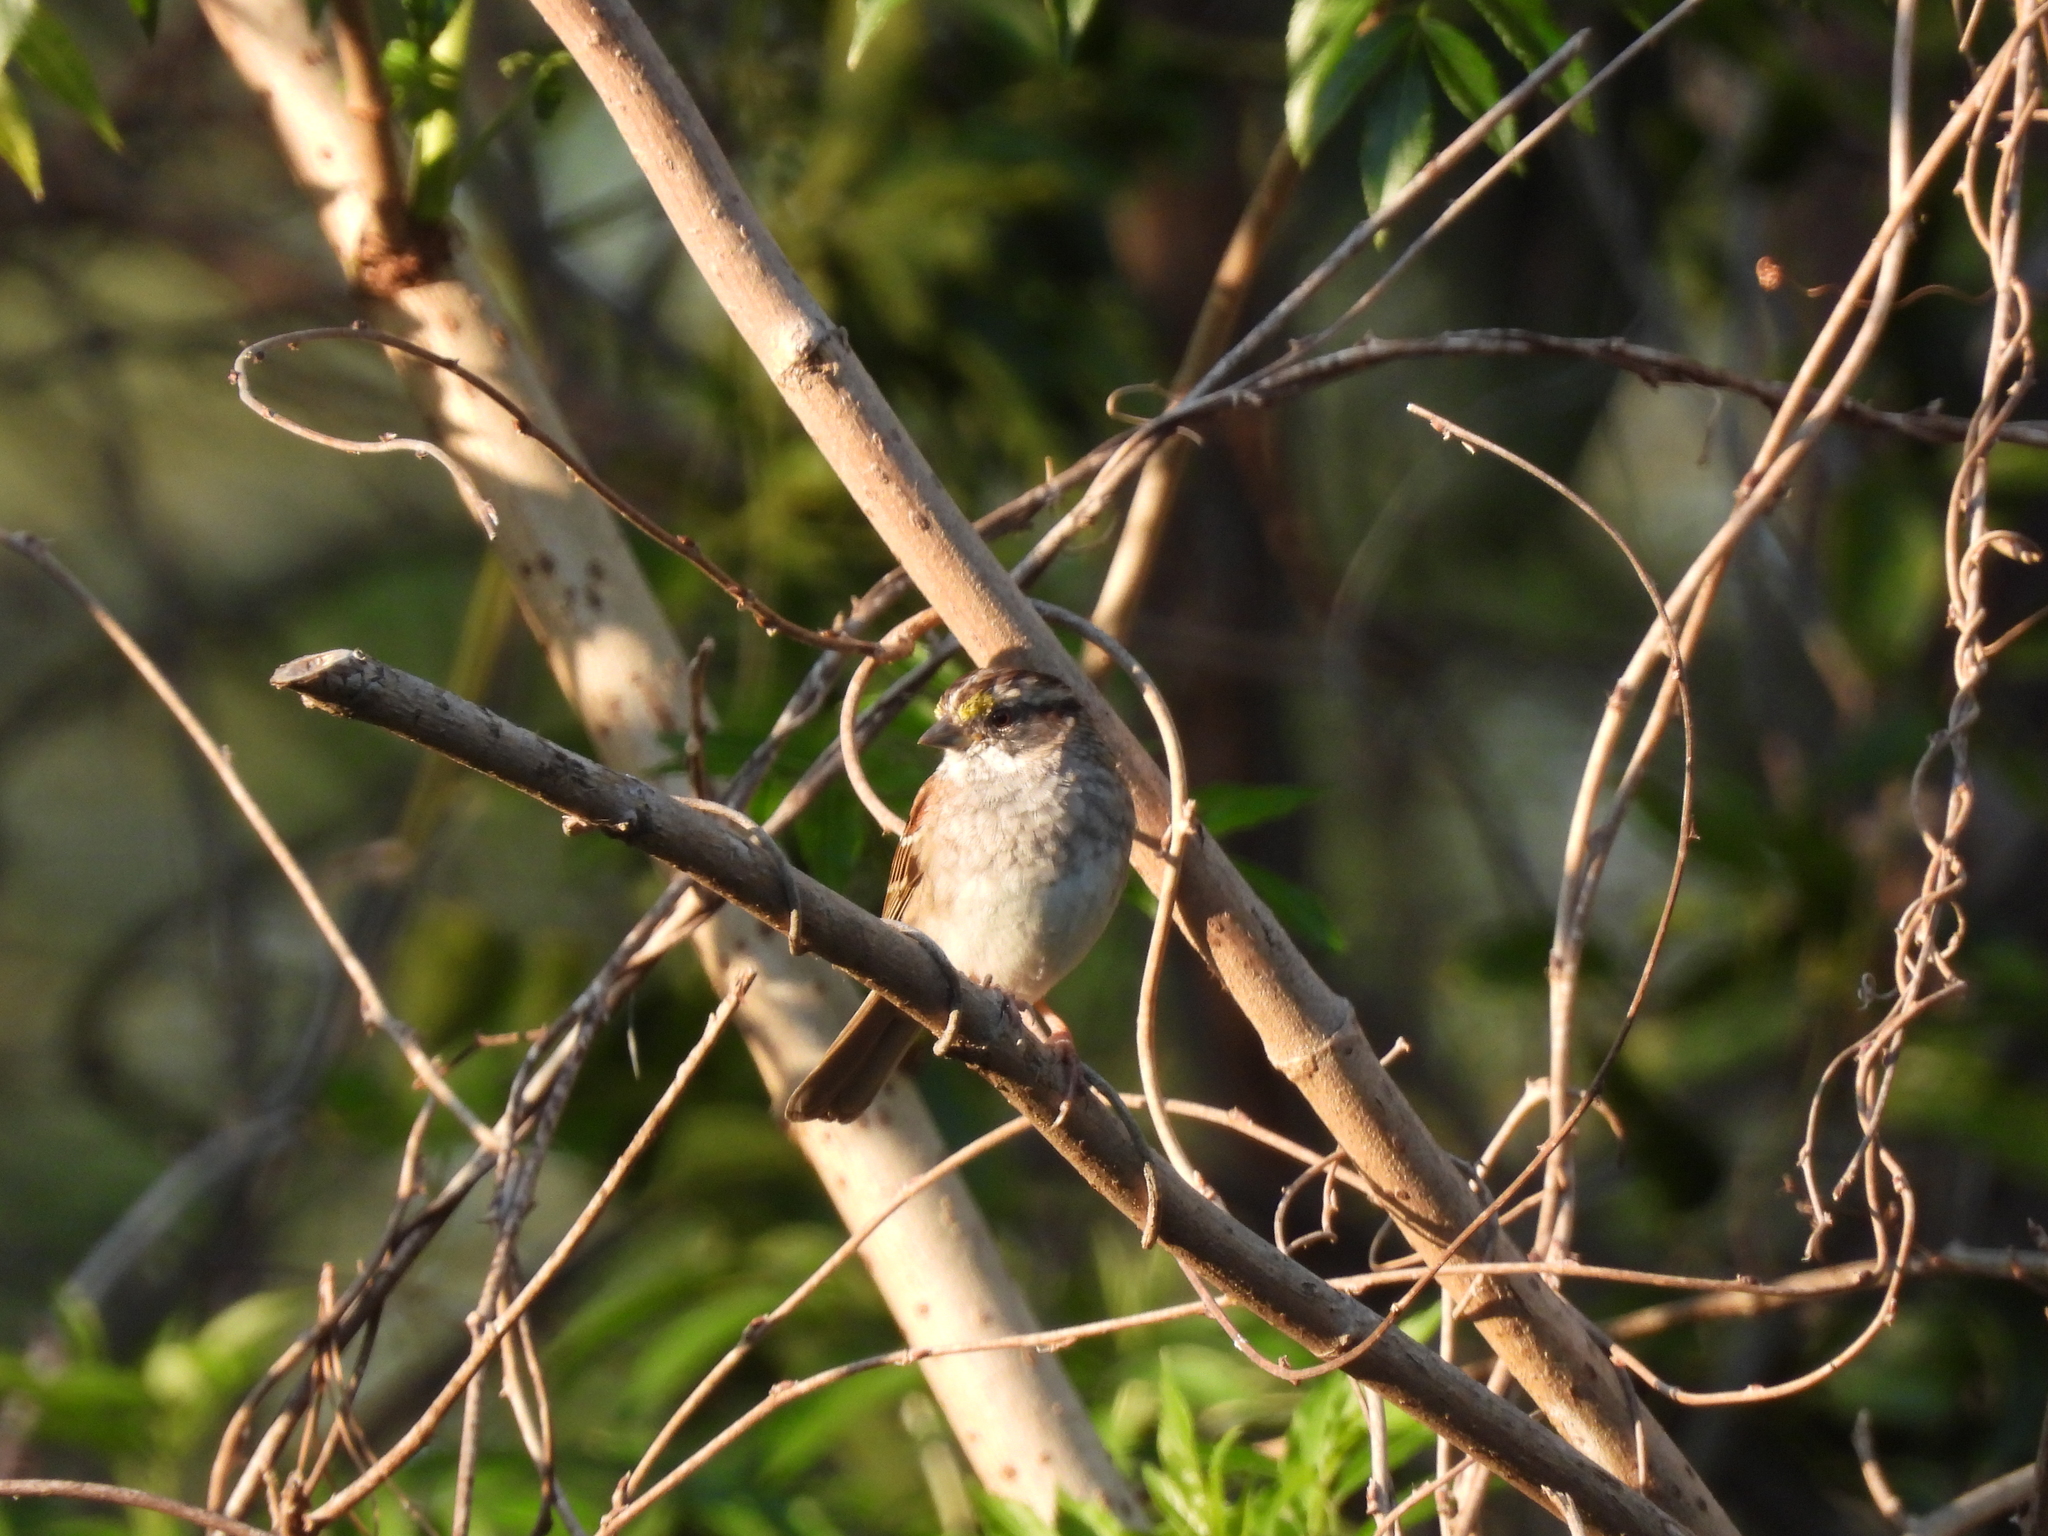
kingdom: Animalia
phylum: Chordata
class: Aves
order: Passeriformes
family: Passerellidae
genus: Zonotrichia
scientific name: Zonotrichia albicollis
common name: White-throated sparrow
